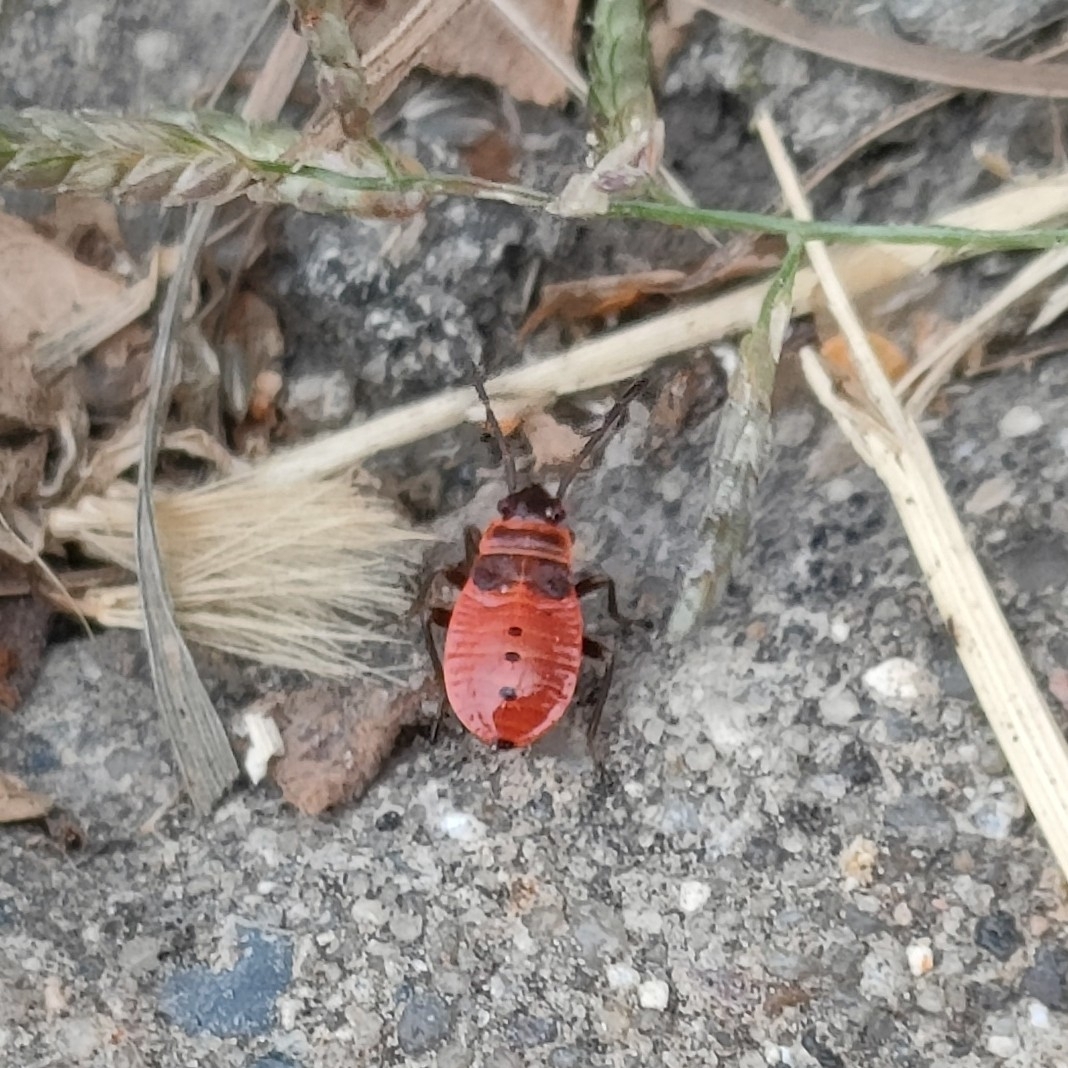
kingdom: Animalia
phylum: Arthropoda
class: Insecta
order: Hemiptera
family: Pyrrhocoridae
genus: Pyrrhocoris
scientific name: Pyrrhocoris apterus
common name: Firebug
